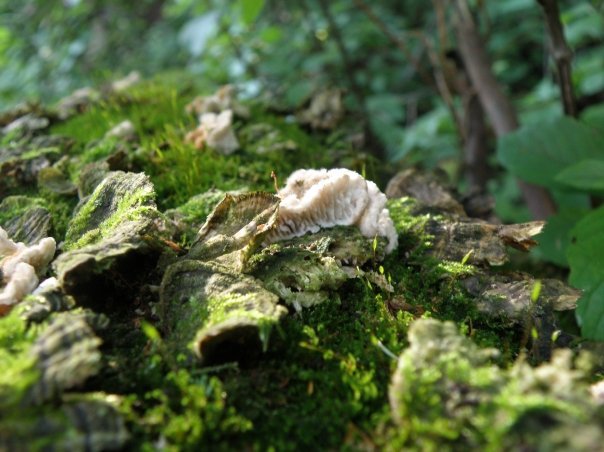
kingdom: Fungi
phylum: Basidiomycota
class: Agaricomycetes
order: Polyporales
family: Polyporaceae
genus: Lenzites
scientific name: Lenzites betulinus
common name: Birch mazegill
